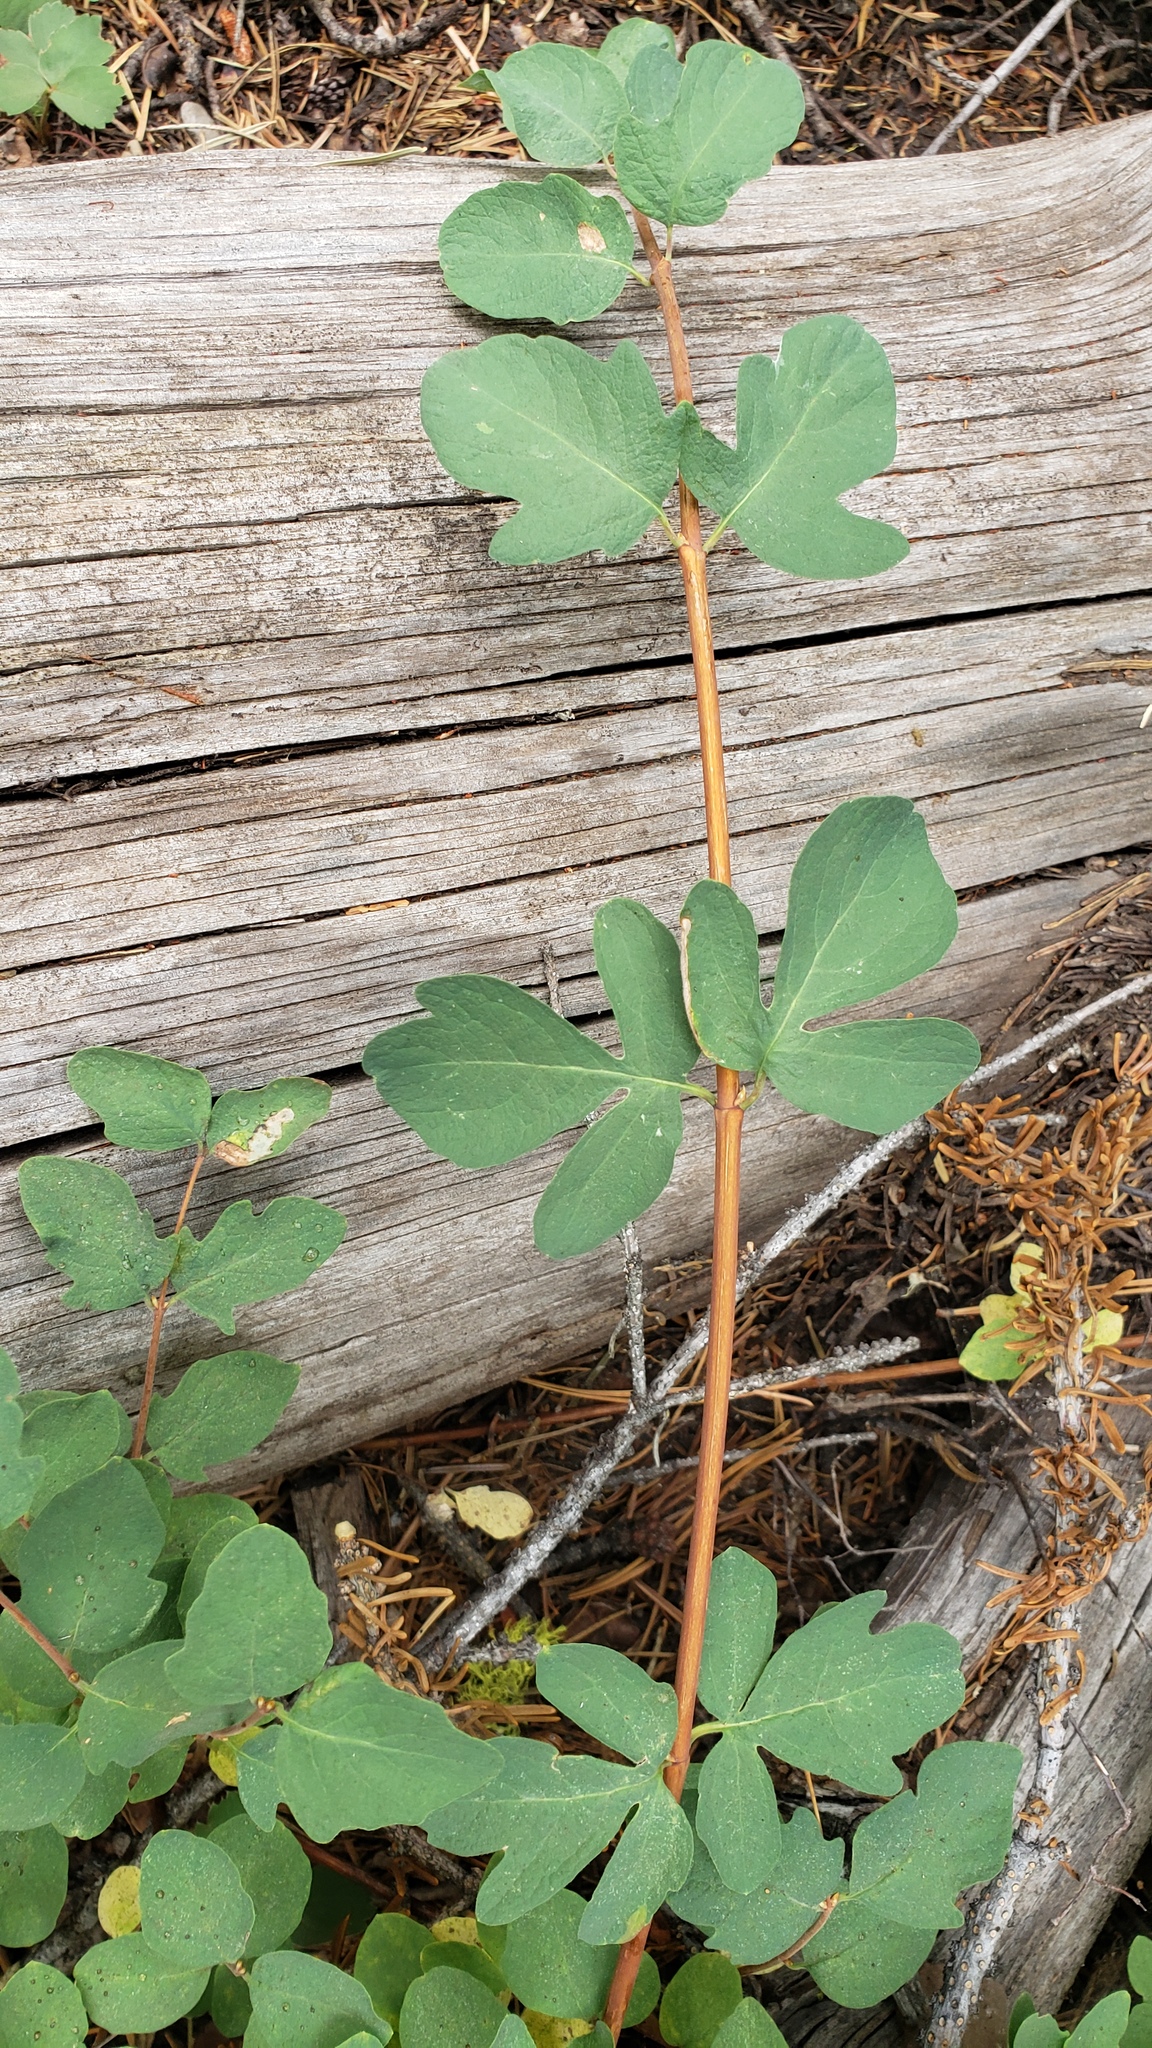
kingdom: Plantae
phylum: Tracheophyta
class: Magnoliopsida
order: Dipsacales
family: Caprifoliaceae
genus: Symphoricarpos
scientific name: Symphoricarpos mollis
